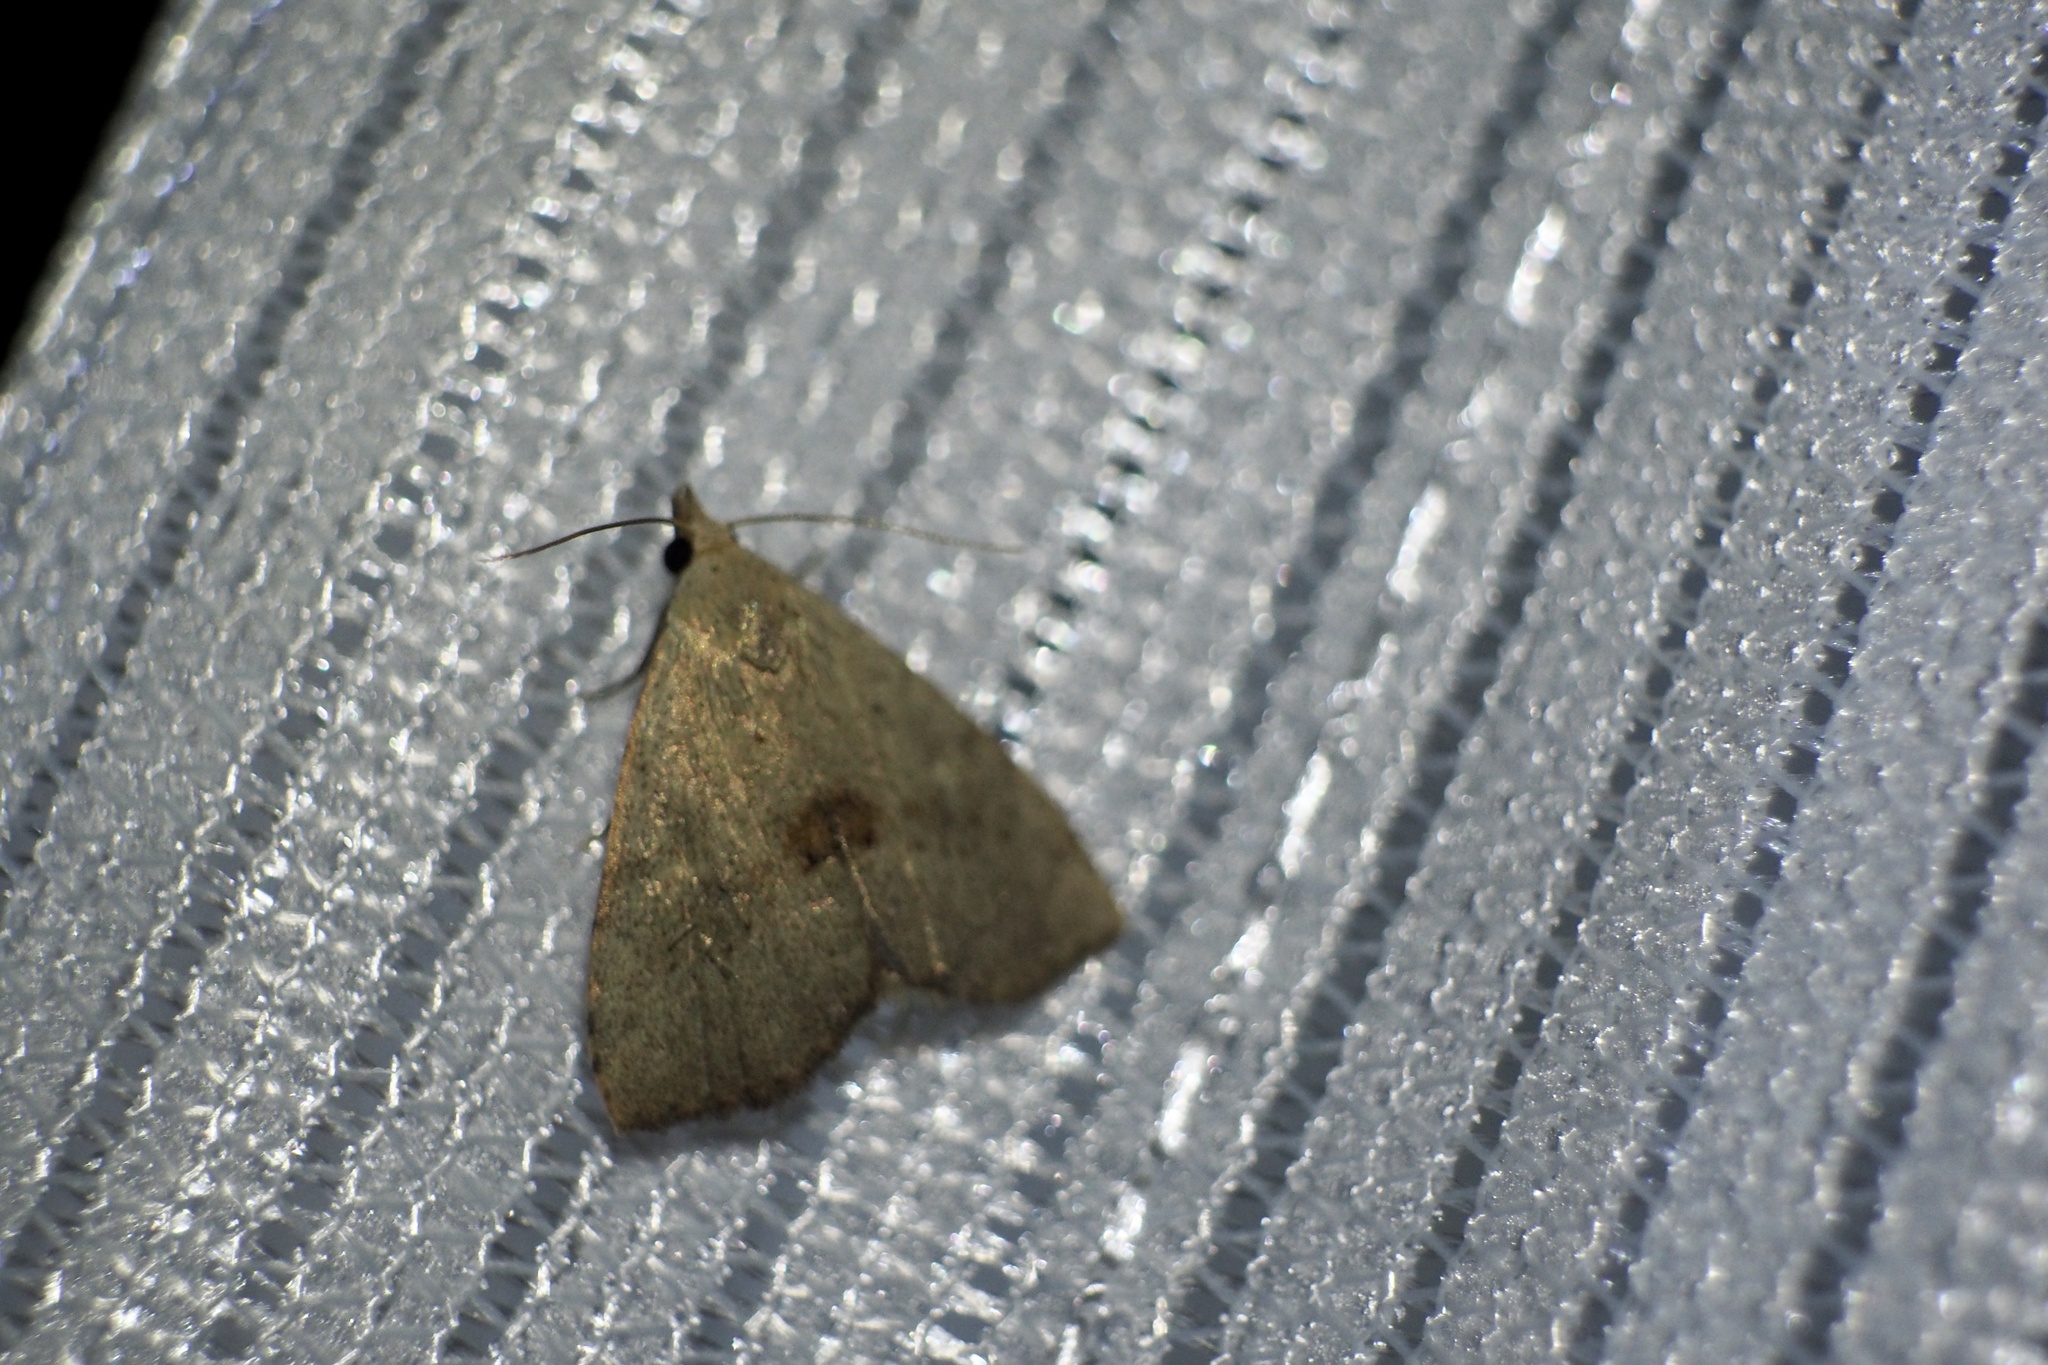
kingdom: Animalia
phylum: Arthropoda
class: Insecta
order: Lepidoptera
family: Erebidae
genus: Gesonia
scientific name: Gesonia fallax
